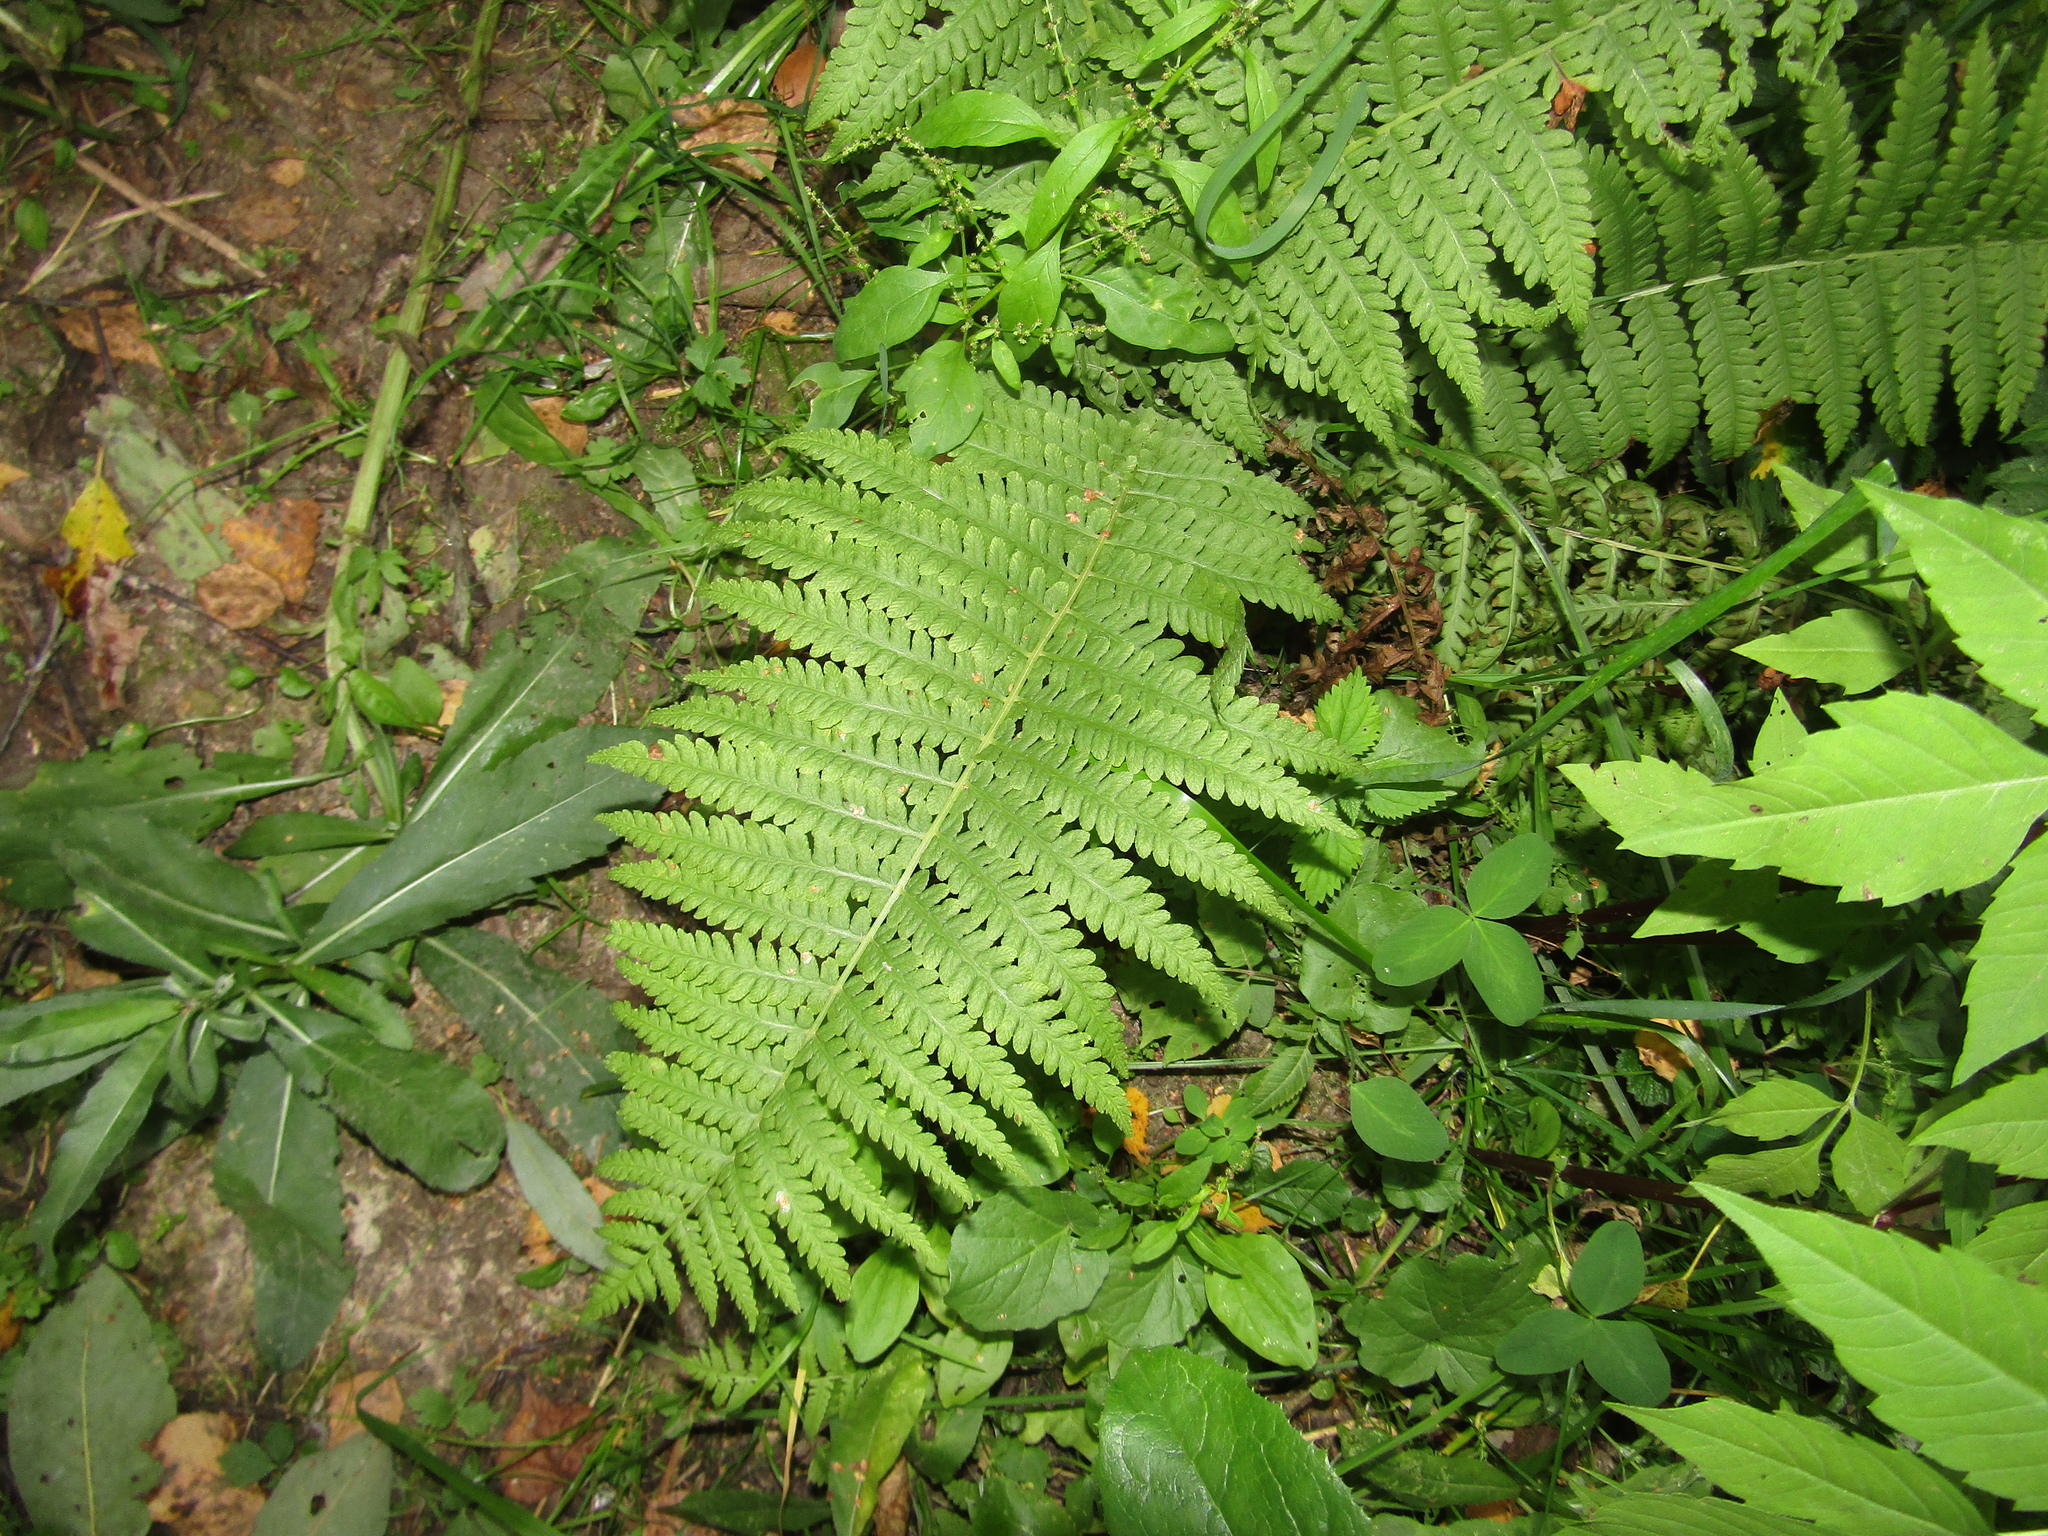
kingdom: Plantae
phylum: Tracheophyta
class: Polypodiopsida
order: Polypodiales
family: Dryopteridaceae
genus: Dryopteris
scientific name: Dryopteris filix-mas
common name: Male fern
